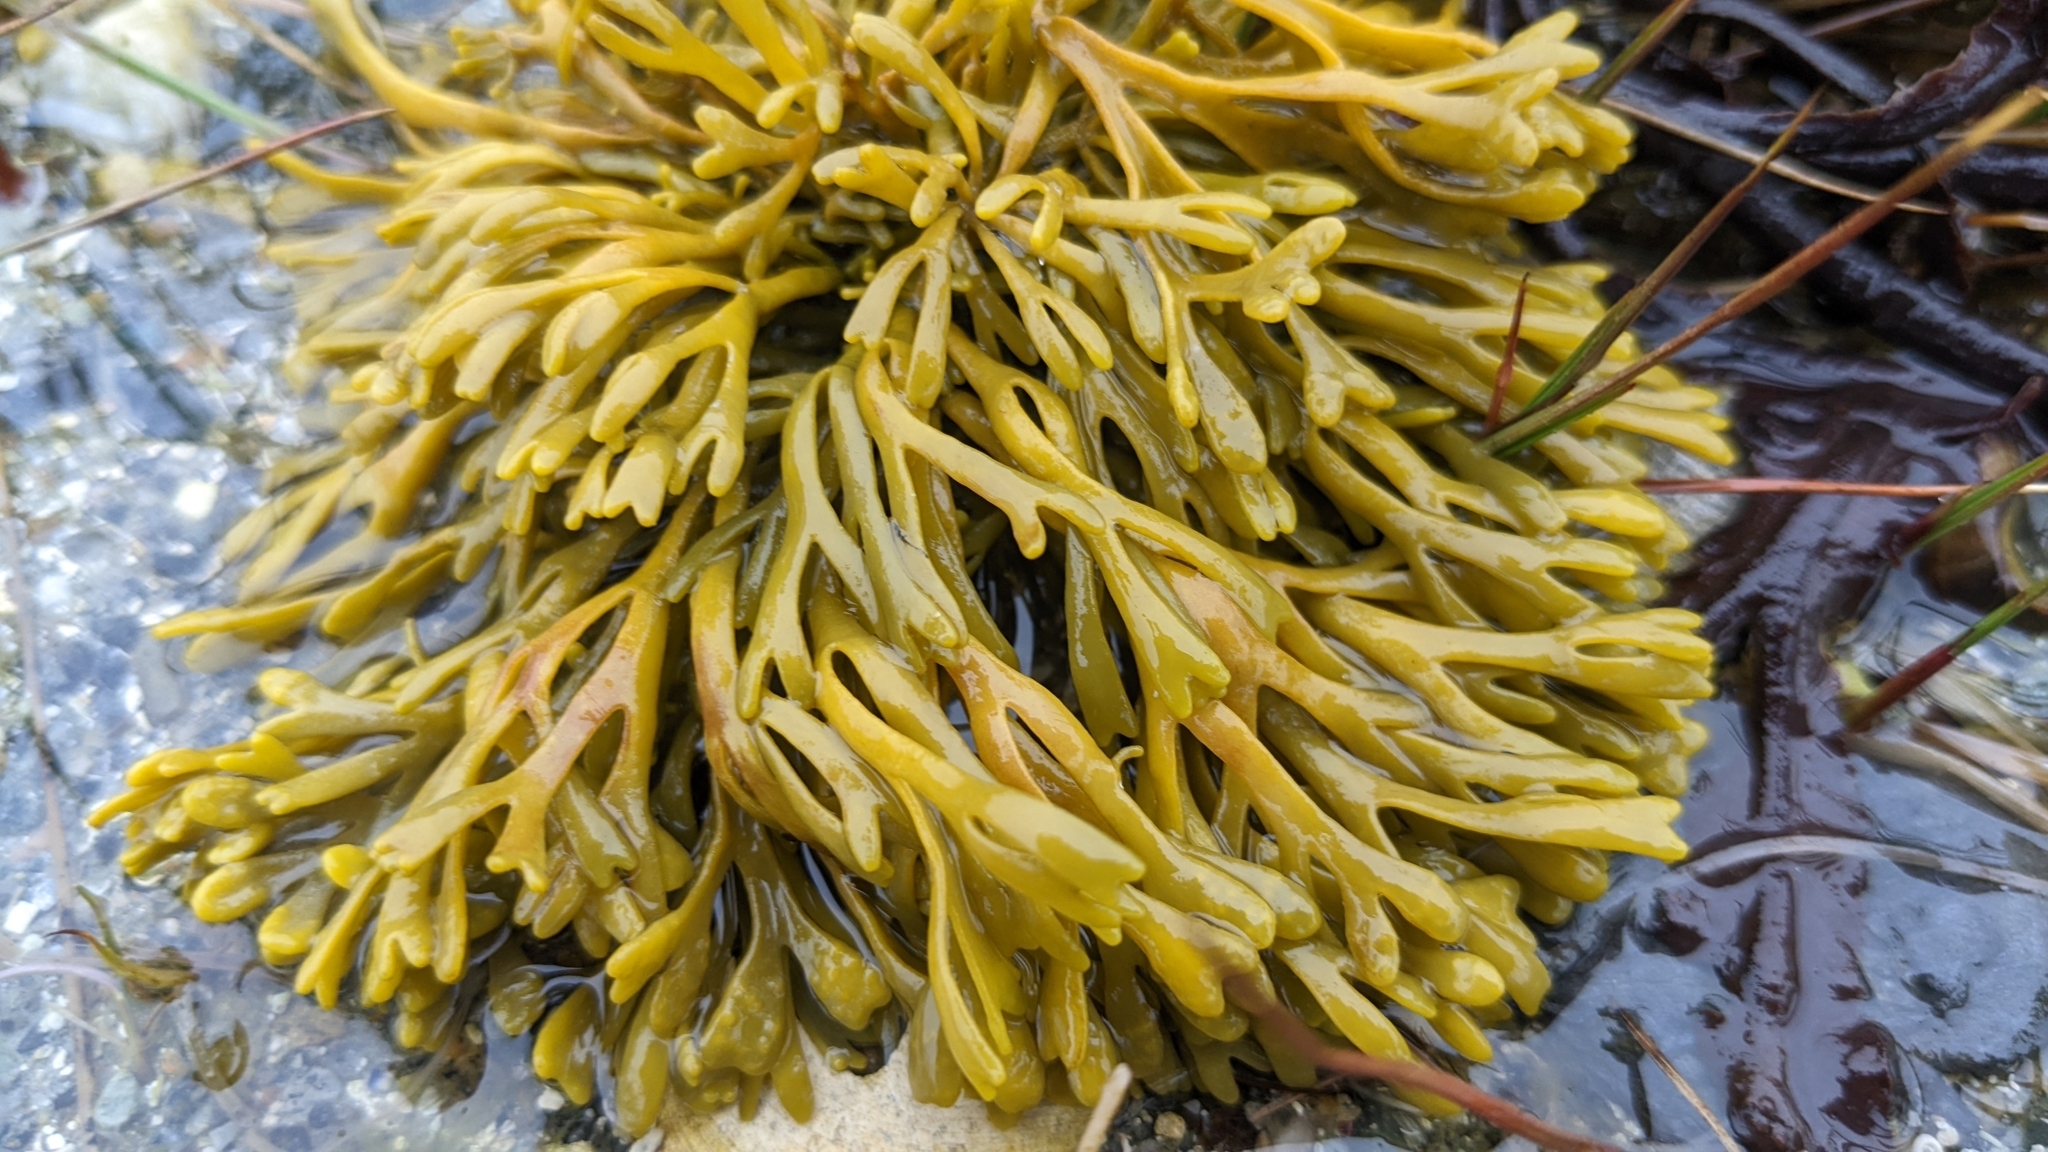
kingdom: Chromista
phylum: Ochrophyta
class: Phaeophyceae
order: Fucales
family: Fucaceae
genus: Pelvetia
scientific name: Pelvetia canaliculata
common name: Channelled wrack
